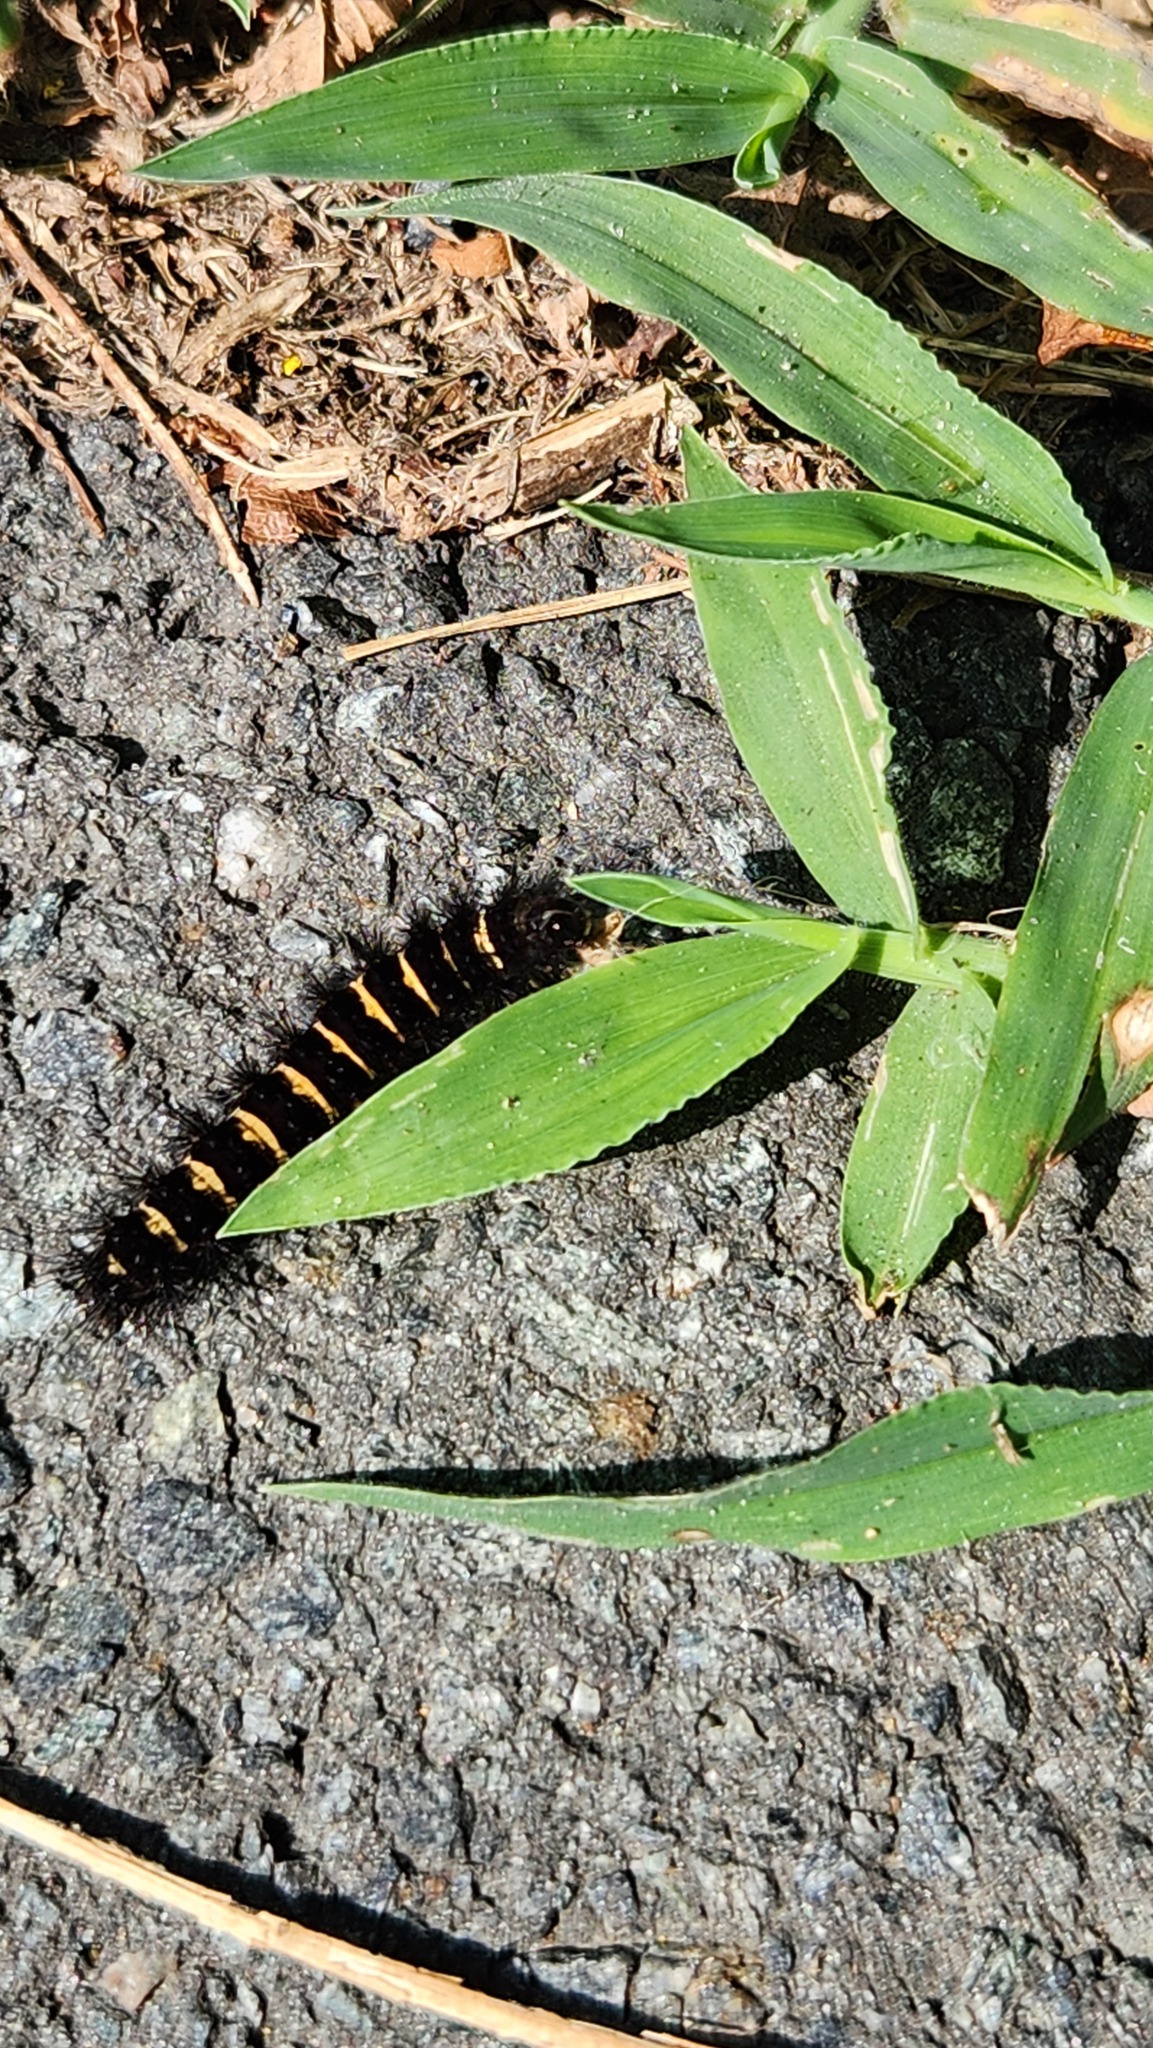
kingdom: Animalia
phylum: Arthropoda
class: Insecta
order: Lepidoptera
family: Erebidae
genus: Spilosoma
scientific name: Spilosoma congrua
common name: Agreeable tiger moth
